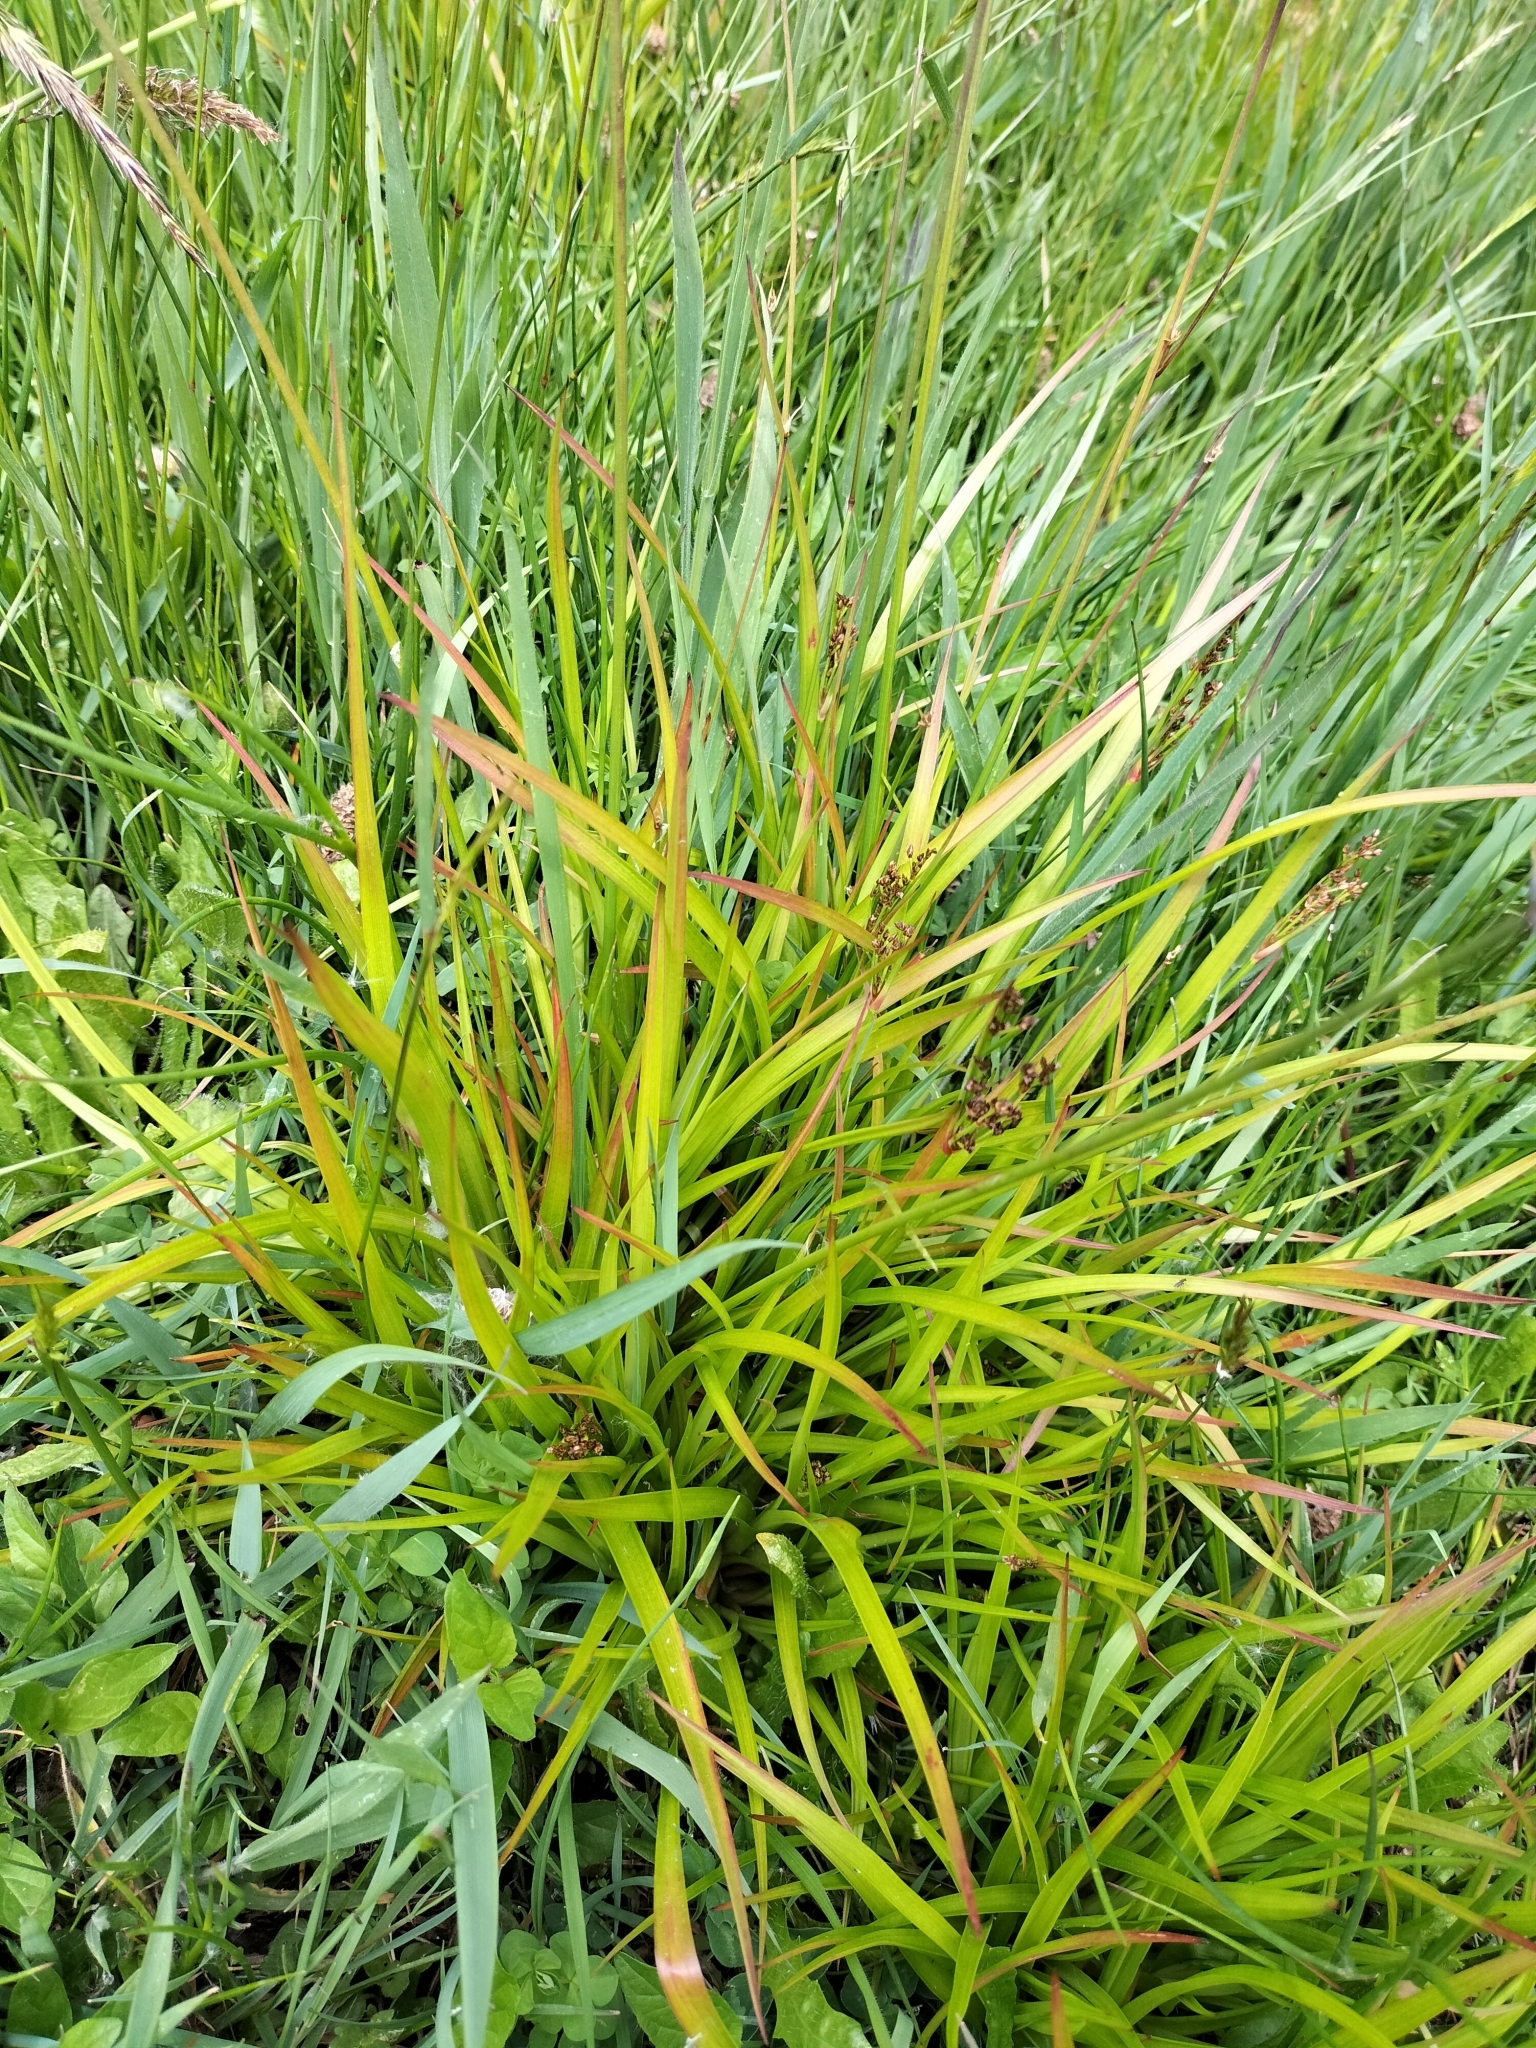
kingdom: Plantae
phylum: Tracheophyta
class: Liliopsida
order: Poales
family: Juncaceae
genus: Juncus
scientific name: Juncus planifolius
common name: Broadleaf rush
